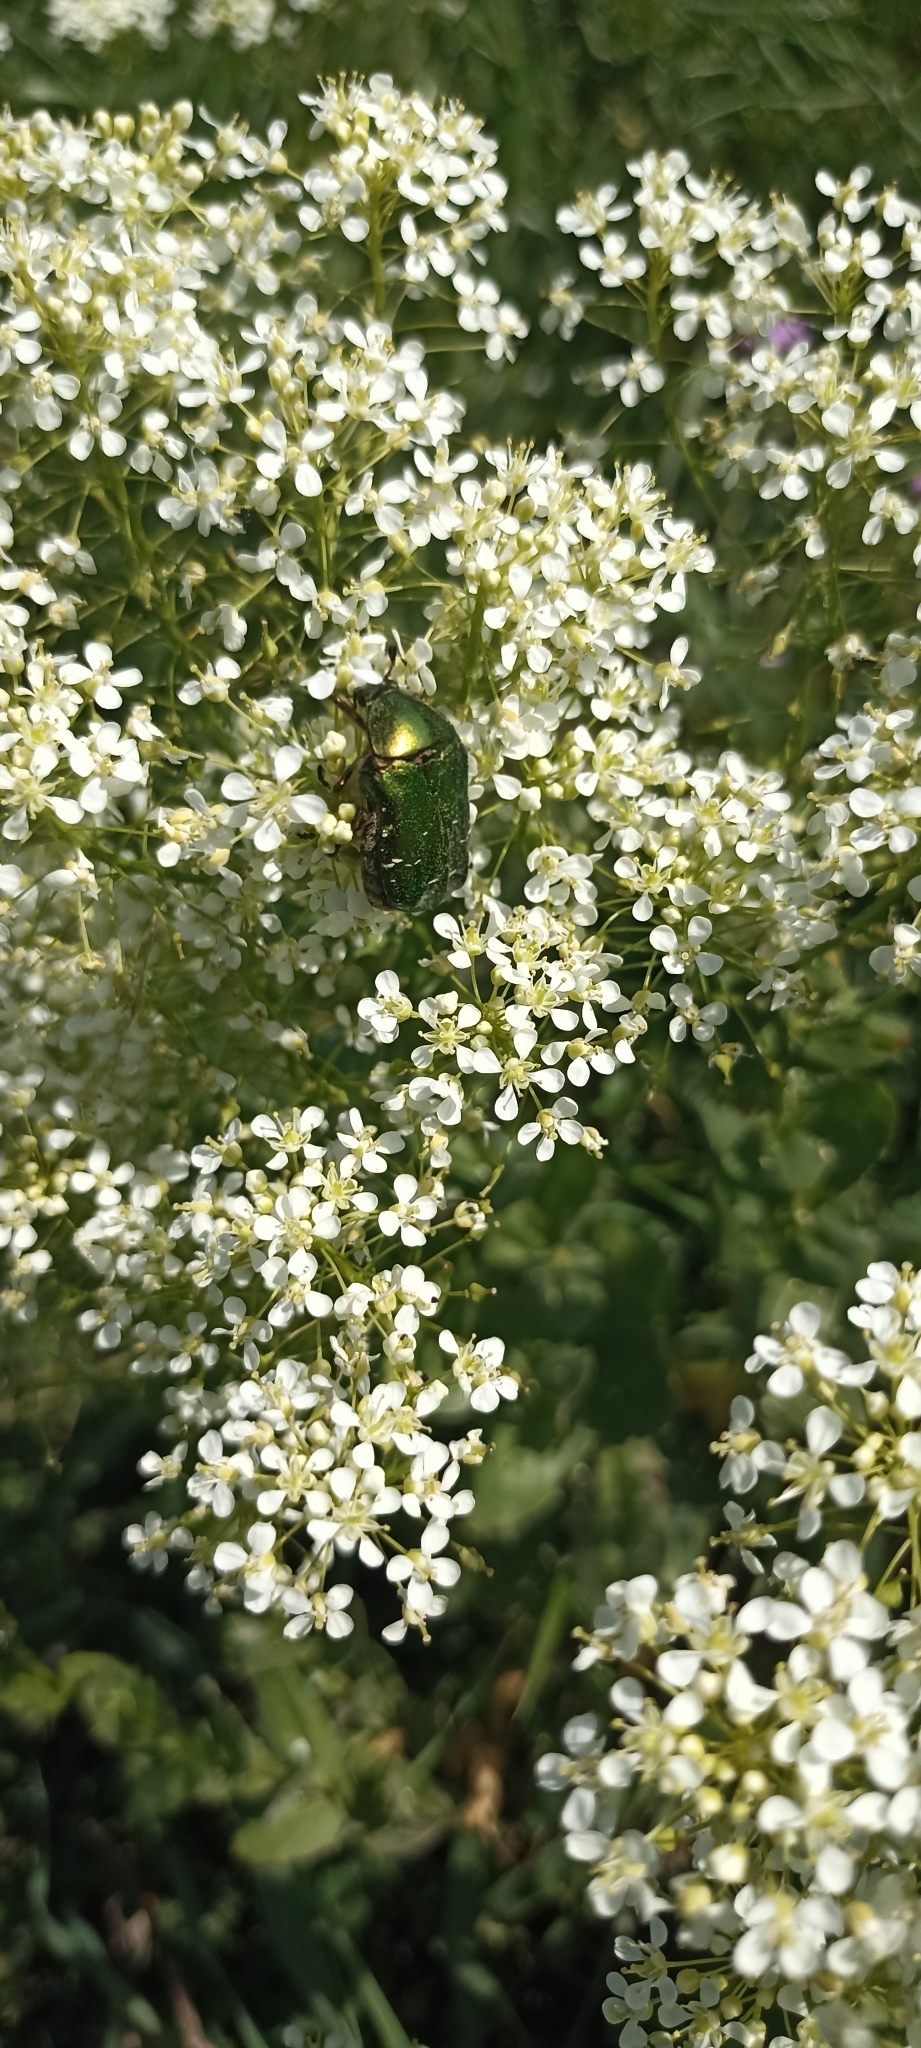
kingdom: Animalia
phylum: Arthropoda
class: Insecta
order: Coleoptera
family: Scarabaeidae
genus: Cetonia
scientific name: Cetonia aurata
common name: Rose chafer
